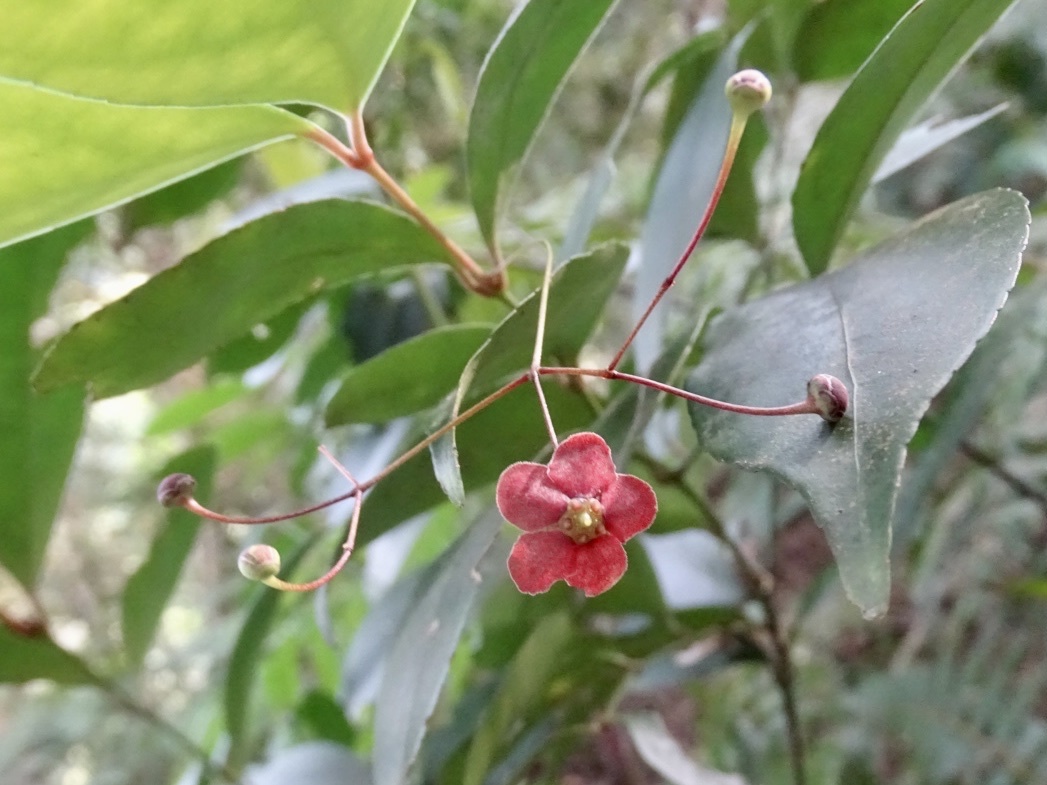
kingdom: Plantae
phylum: Tracheophyta
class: Magnoliopsida
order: Celastrales
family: Celastraceae
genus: Euonymus
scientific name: Euonymus laxiflorus
